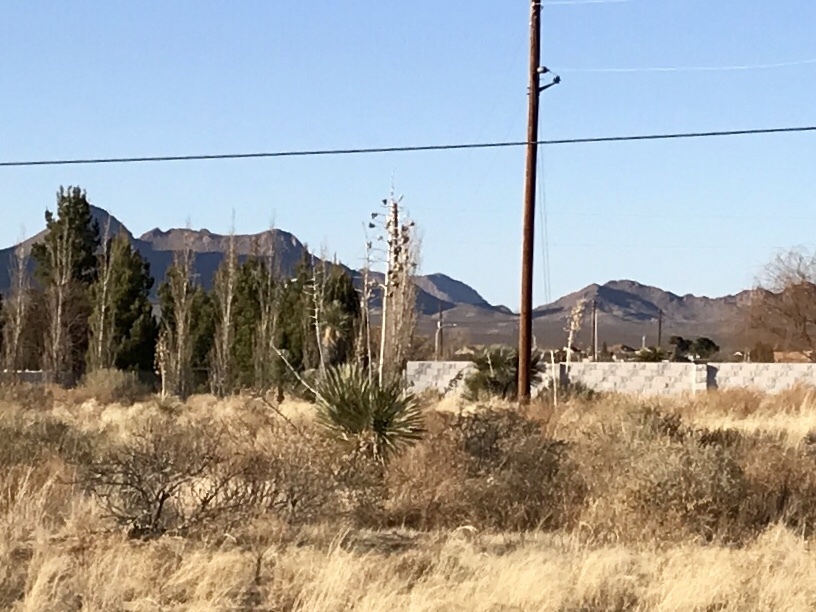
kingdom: Plantae
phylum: Tracheophyta
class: Liliopsida
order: Asparagales
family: Asparagaceae
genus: Yucca
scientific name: Yucca elata
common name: Palmella
